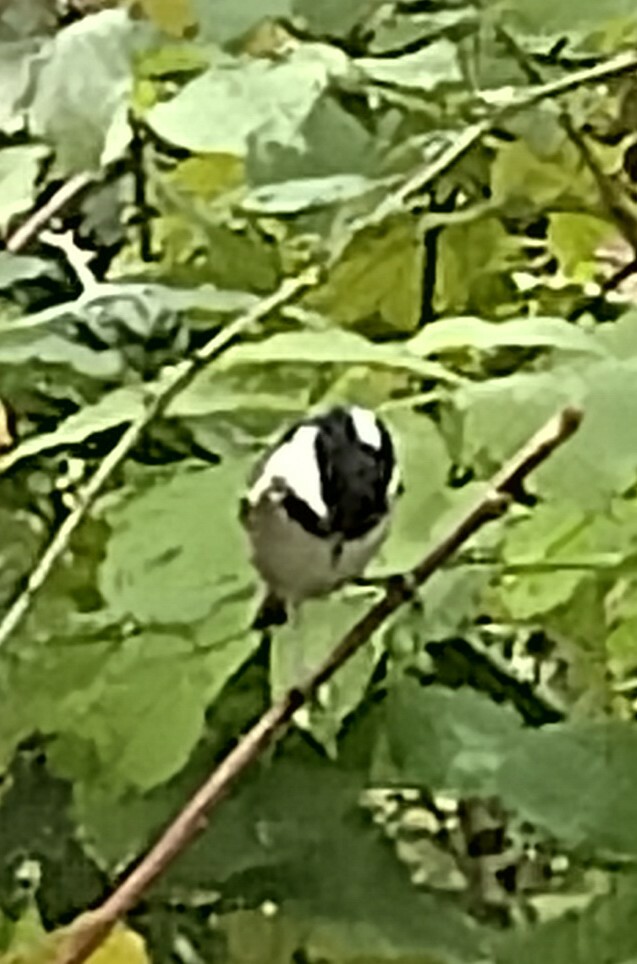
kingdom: Animalia
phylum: Chordata
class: Aves
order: Passeriformes
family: Paridae
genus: Periparus
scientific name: Periparus ater
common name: Coal tit
